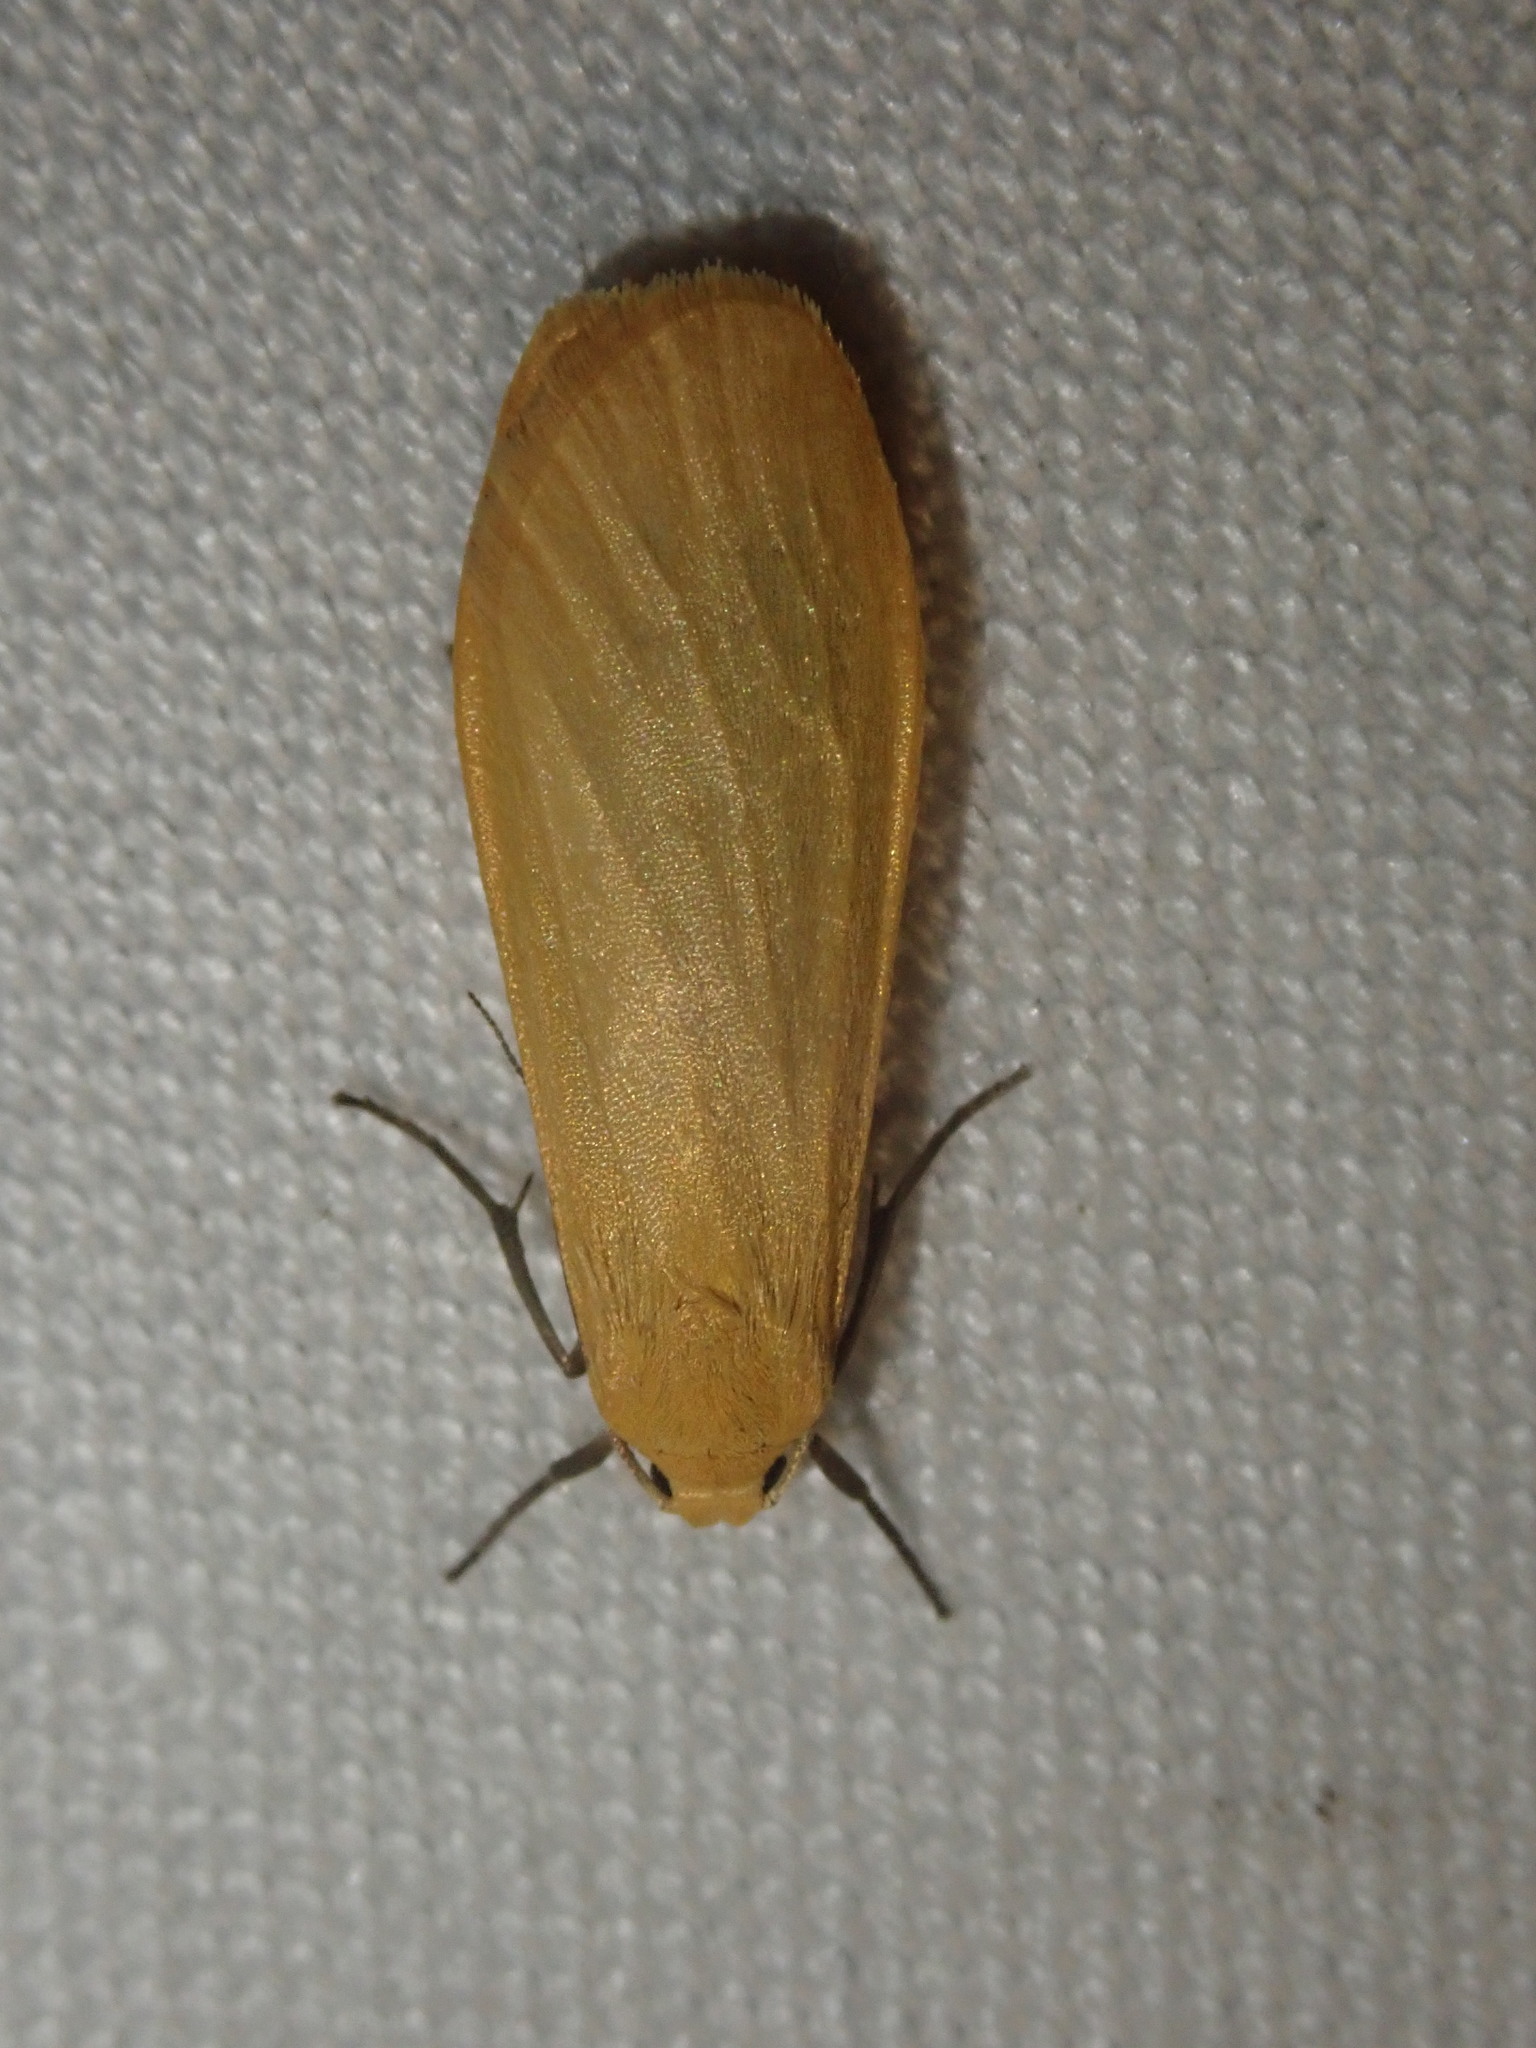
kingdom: Animalia
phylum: Arthropoda
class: Insecta
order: Lepidoptera
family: Erebidae
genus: Wittia
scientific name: Wittia sororcula
